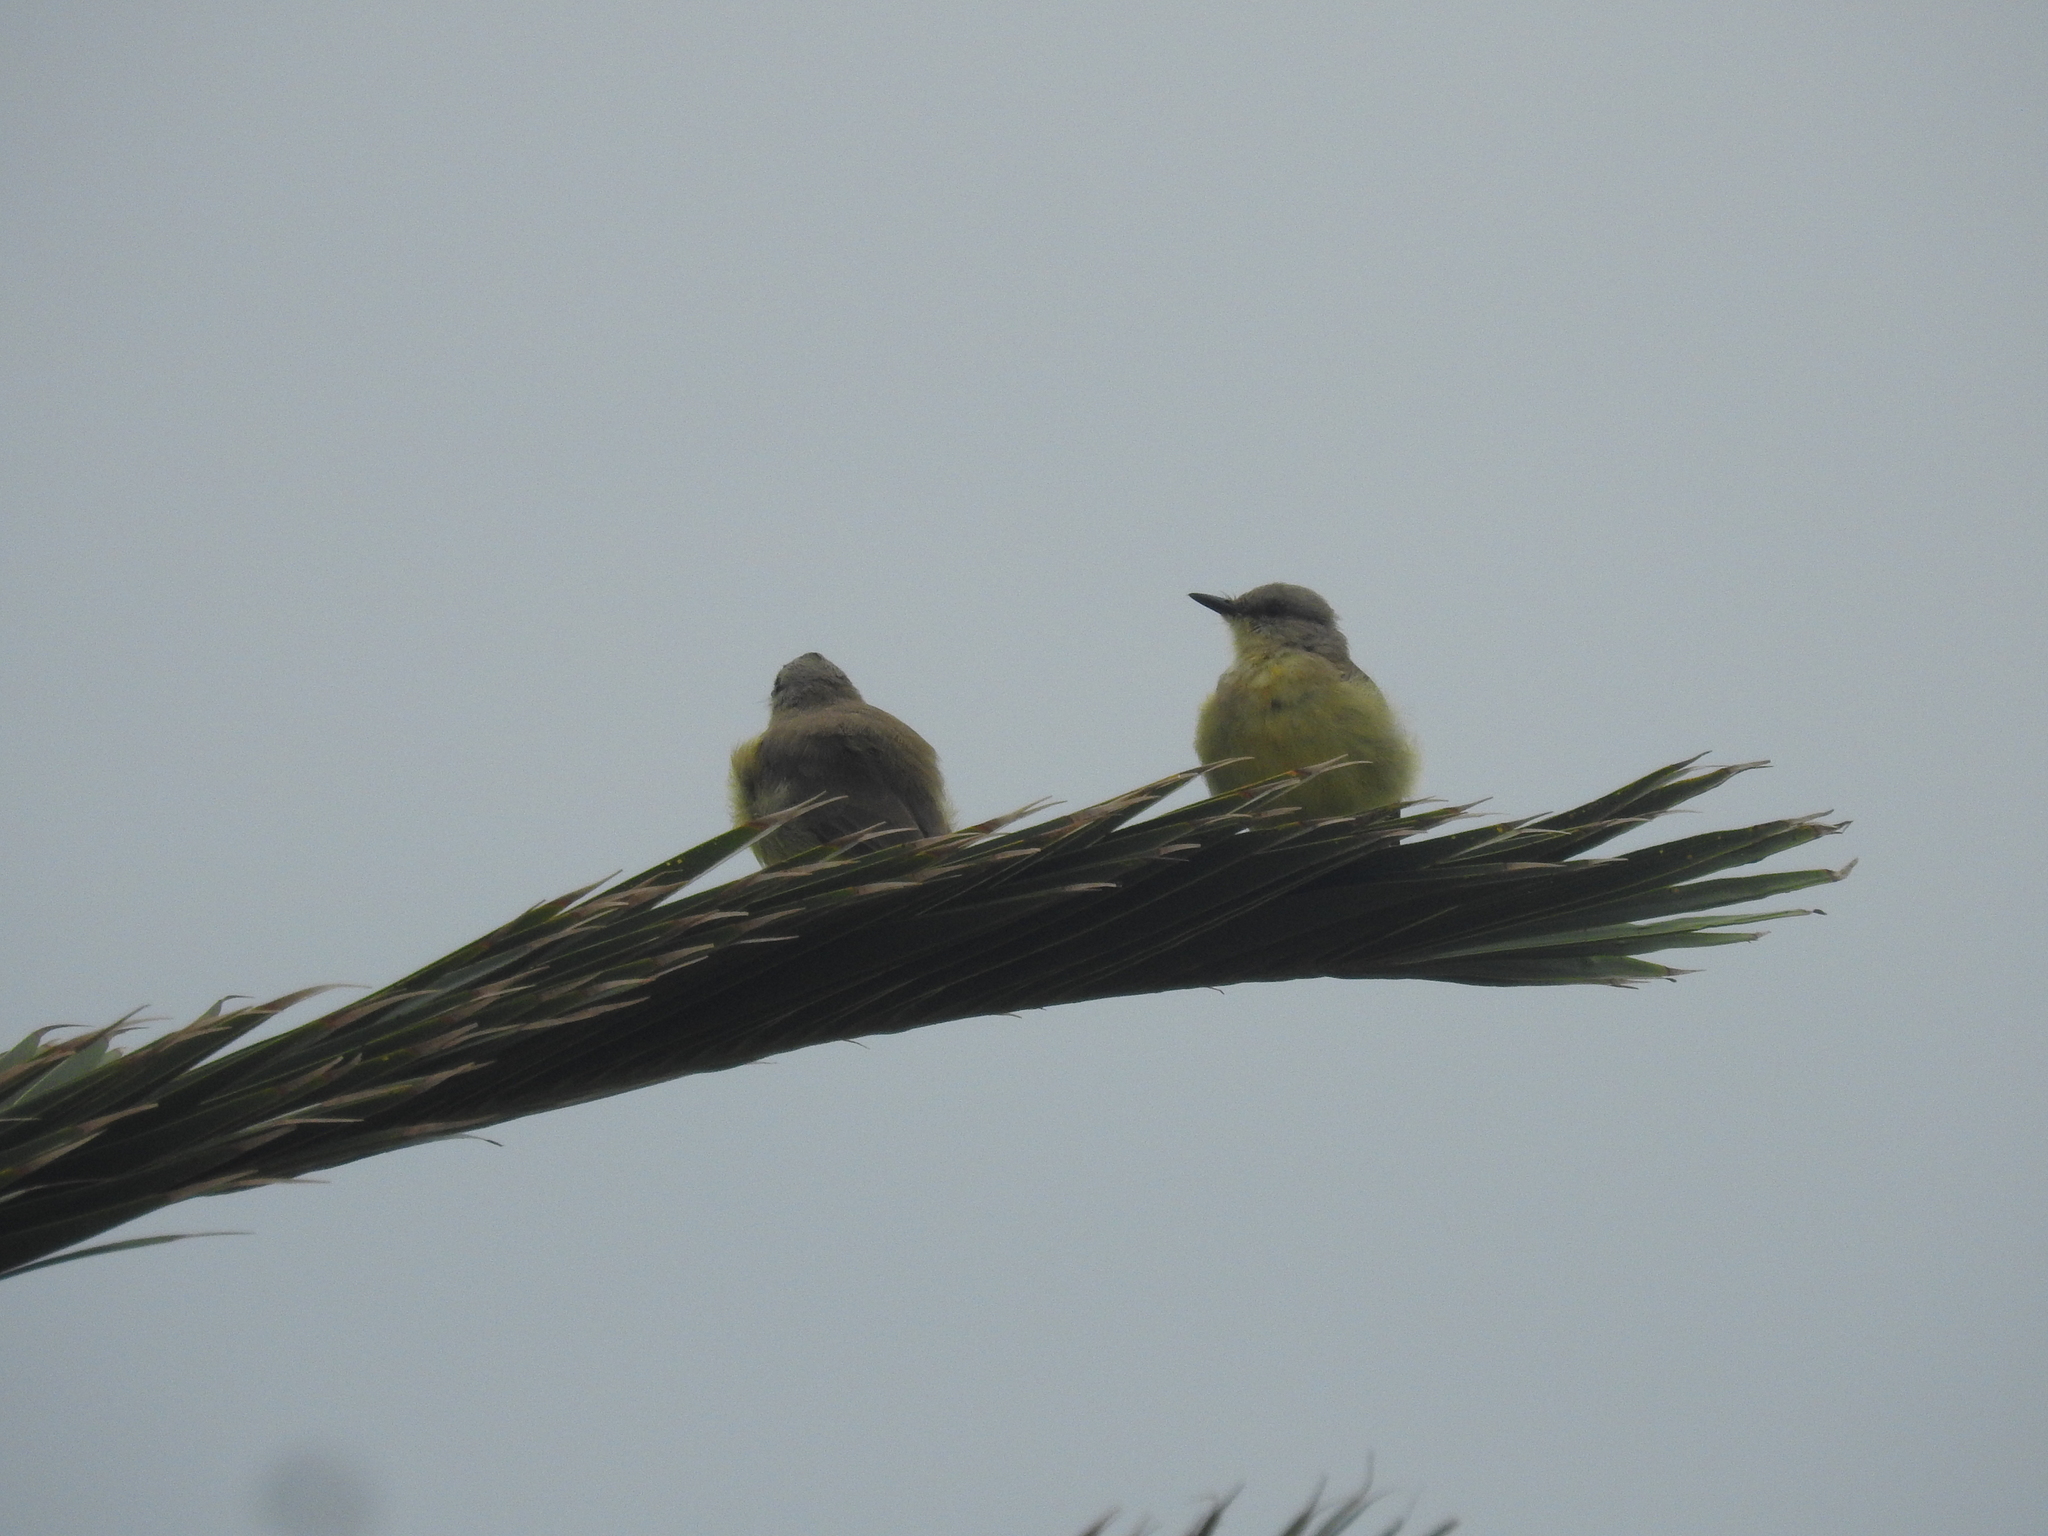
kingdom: Animalia
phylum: Chordata
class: Aves
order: Passeriformes
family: Tyrannidae
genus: Machetornis
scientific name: Machetornis rixosa
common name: Cattle tyrant
